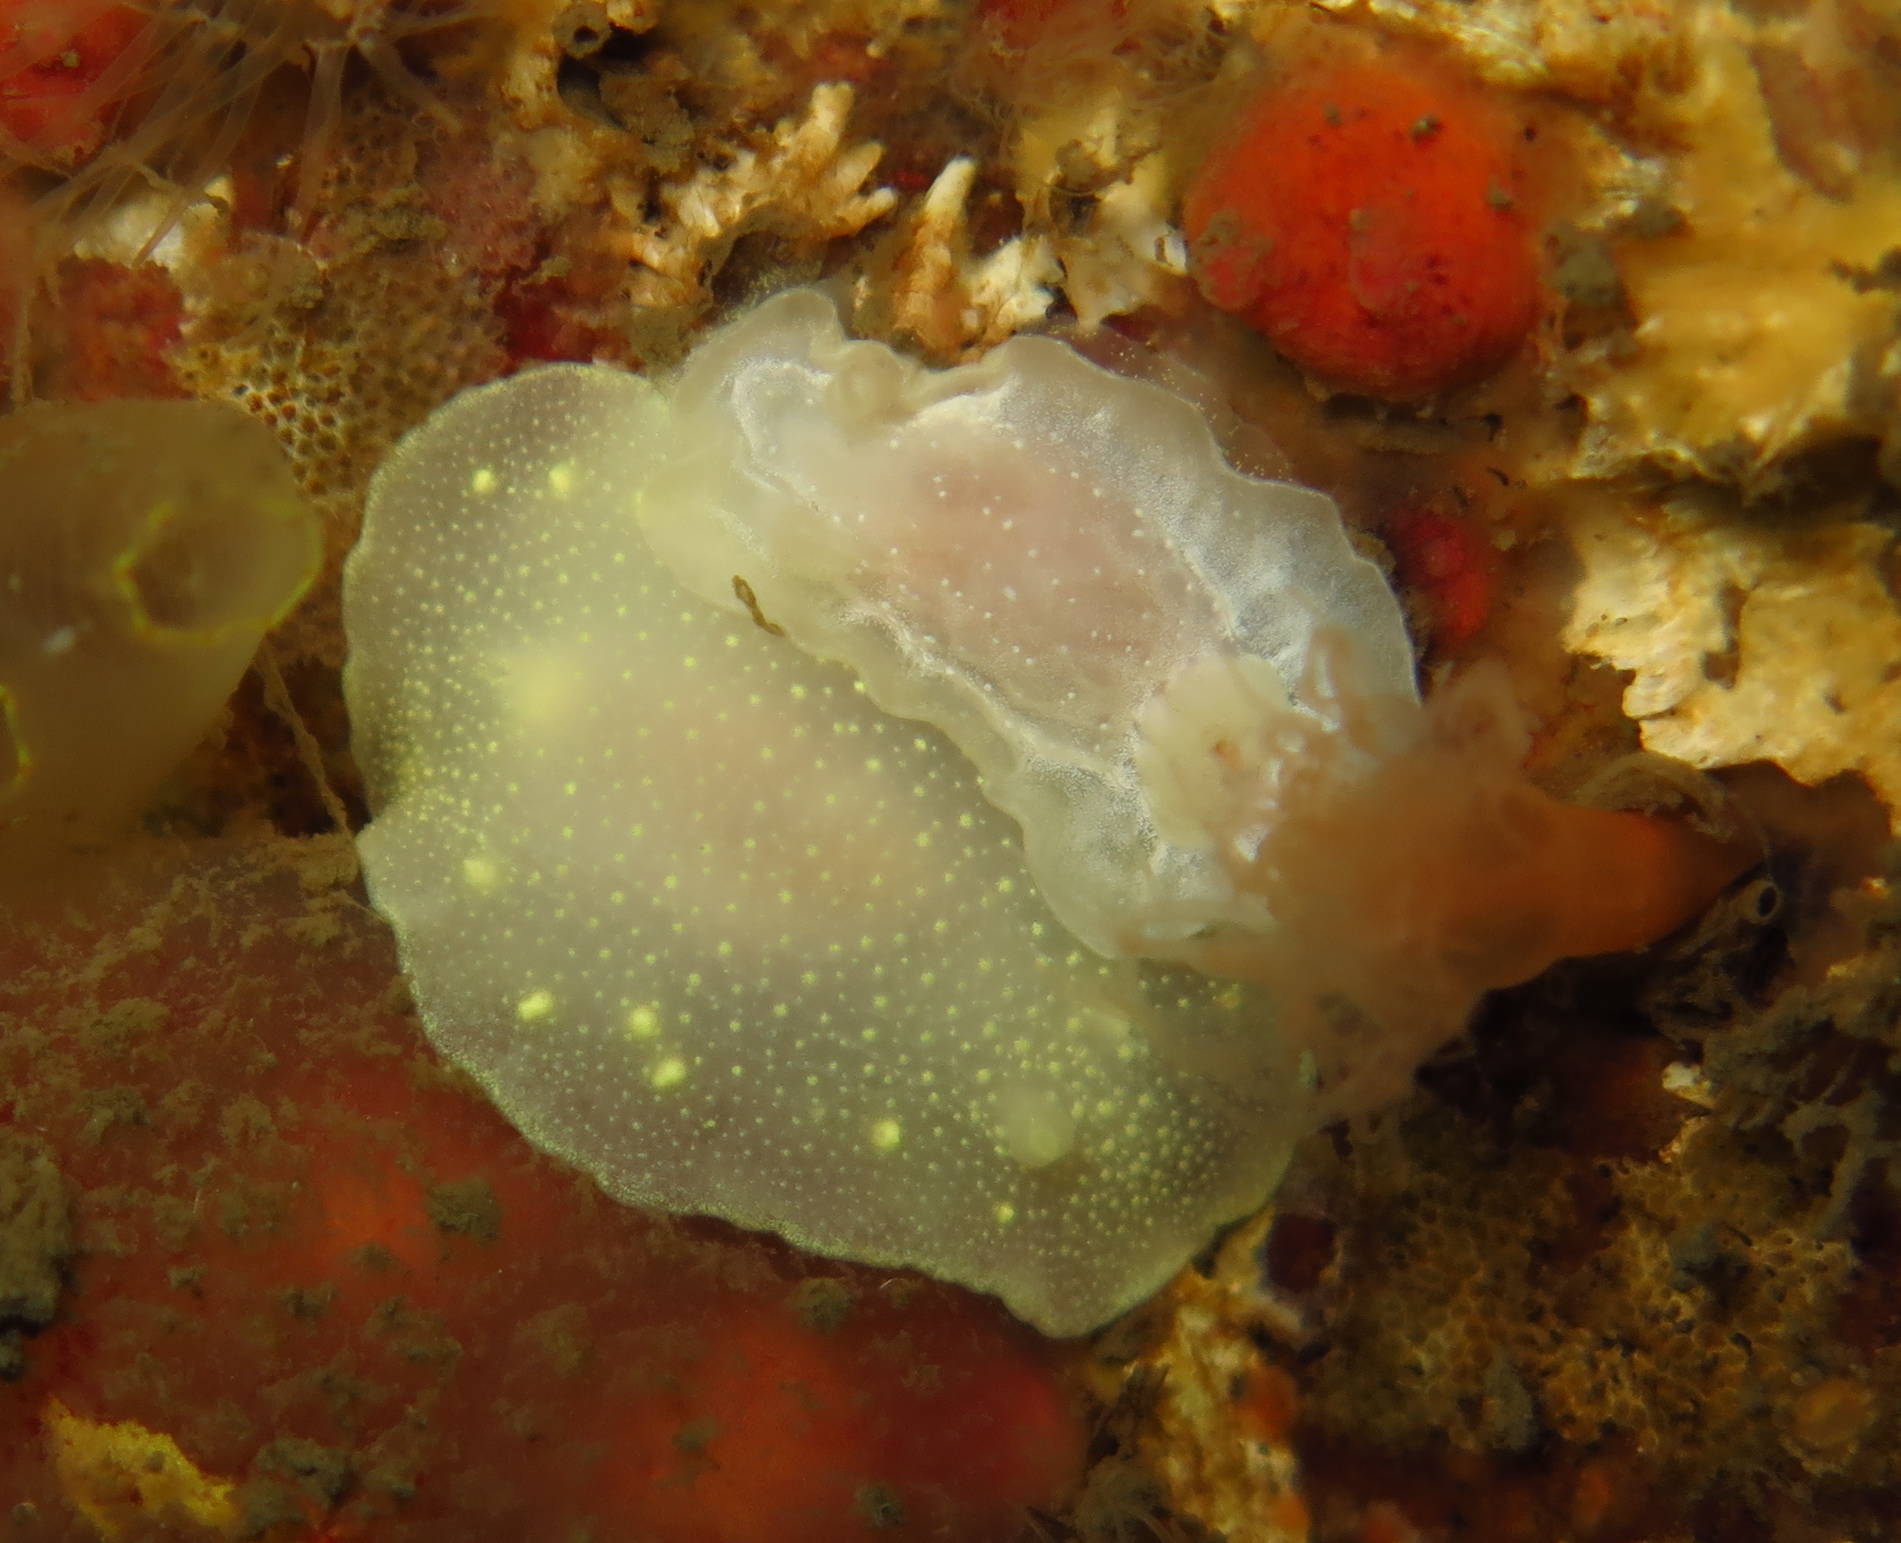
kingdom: Animalia
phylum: Mollusca
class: Gastropoda
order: Nudibranchia
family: Goniodorididae
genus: Okenia
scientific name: Okenia
